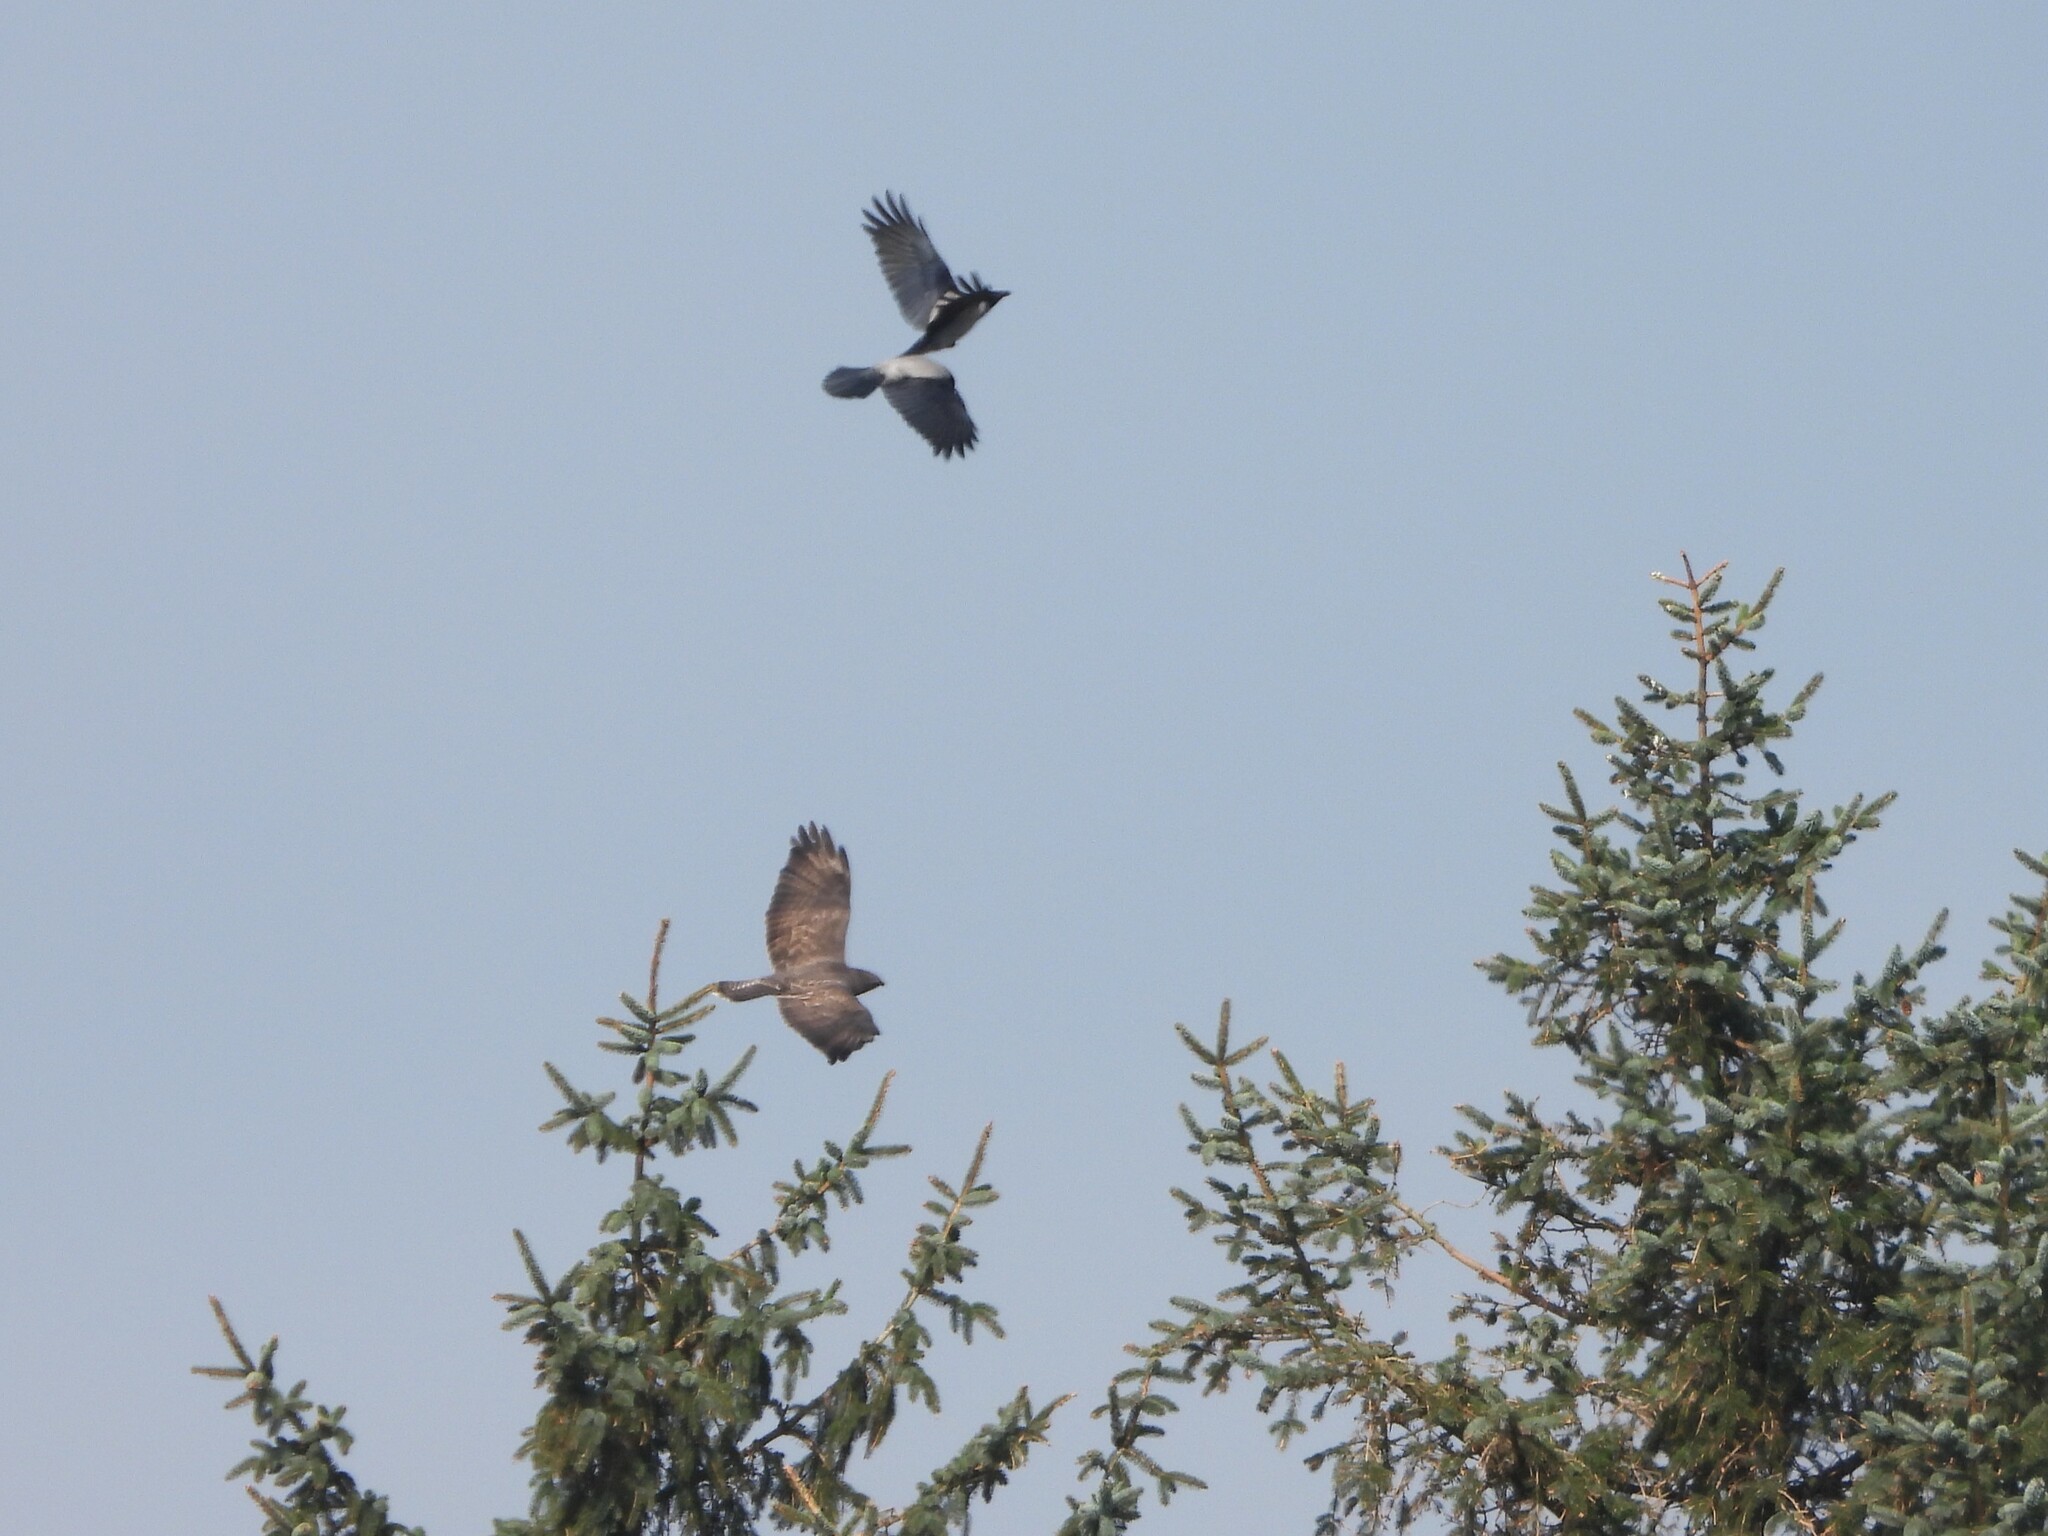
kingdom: Animalia
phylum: Chordata
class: Aves
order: Accipitriformes
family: Accipitridae
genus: Buteo
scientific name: Buteo buteo
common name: Common buzzard
